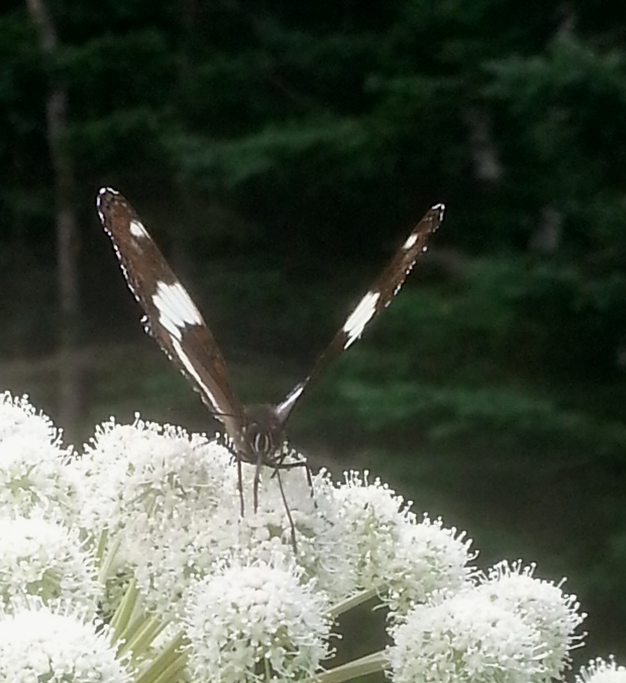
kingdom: Animalia
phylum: Arthropoda
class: Insecta
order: Lepidoptera
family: Nymphalidae
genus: Limenitis
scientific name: Limenitis arthemis
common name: Red-spotted admiral
